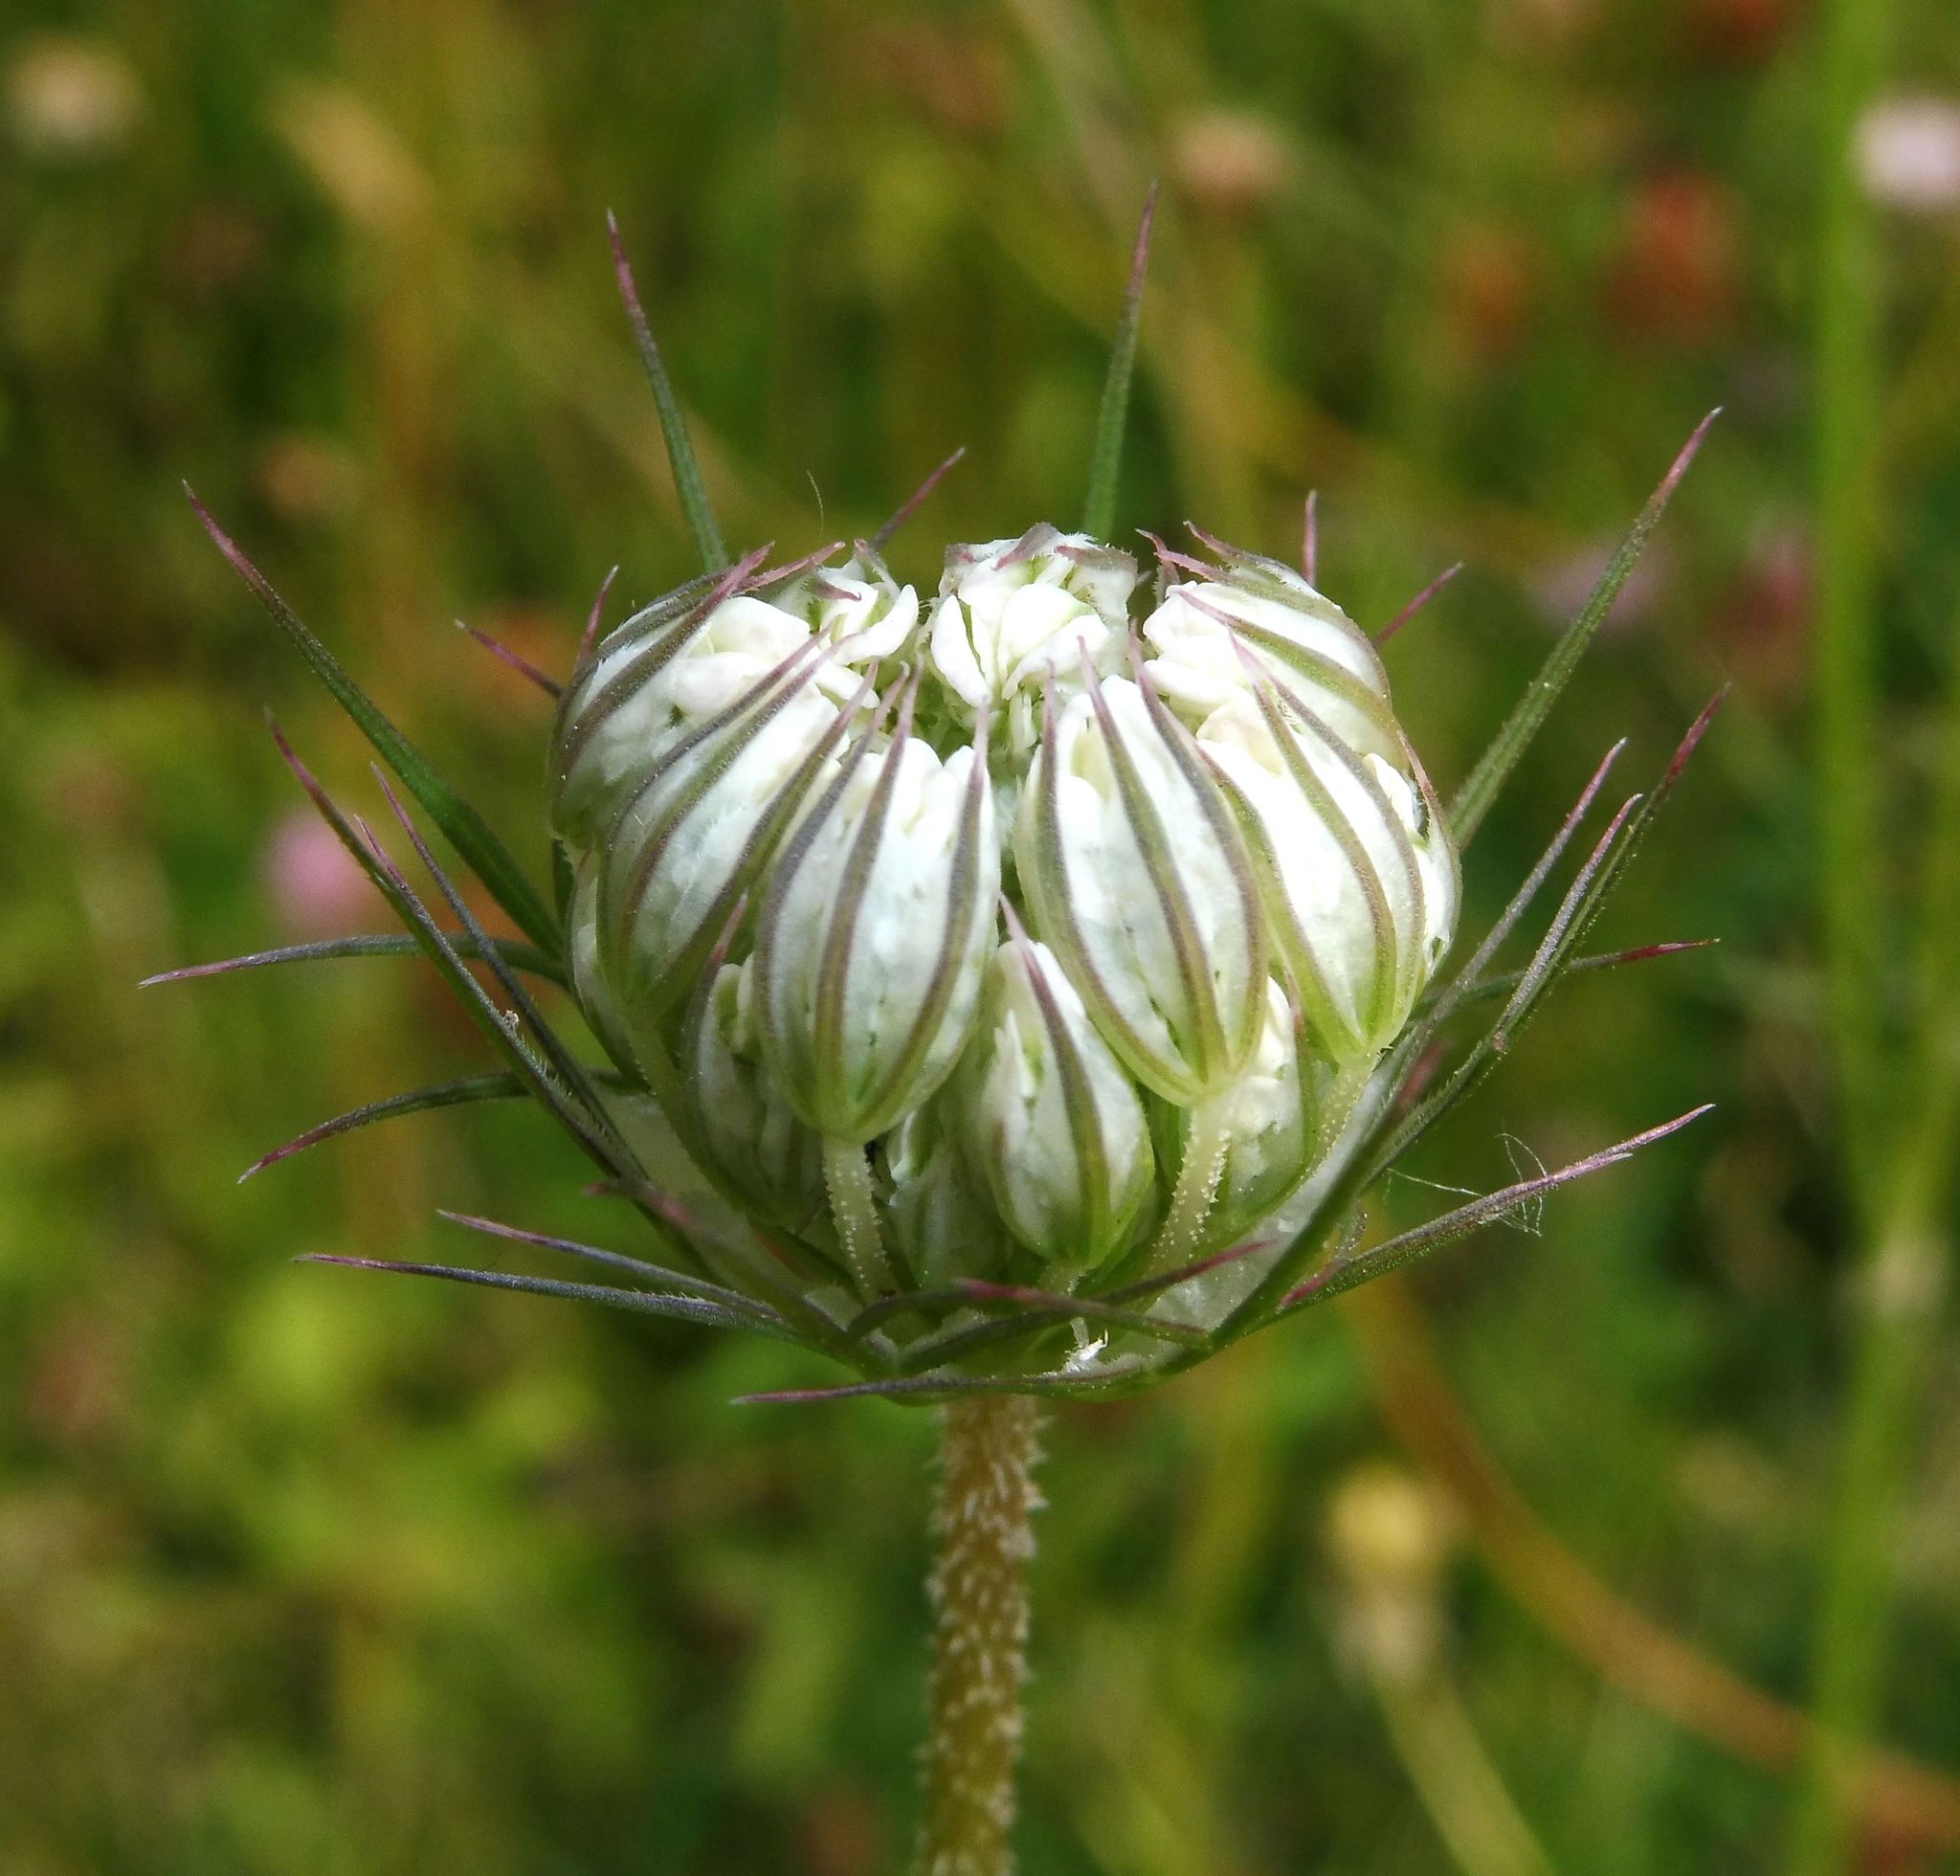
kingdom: Plantae
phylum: Tracheophyta
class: Magnoliopsida
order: Apiales
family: Apiaceae
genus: Daucus
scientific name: Daucus carota
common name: Wild carrot
